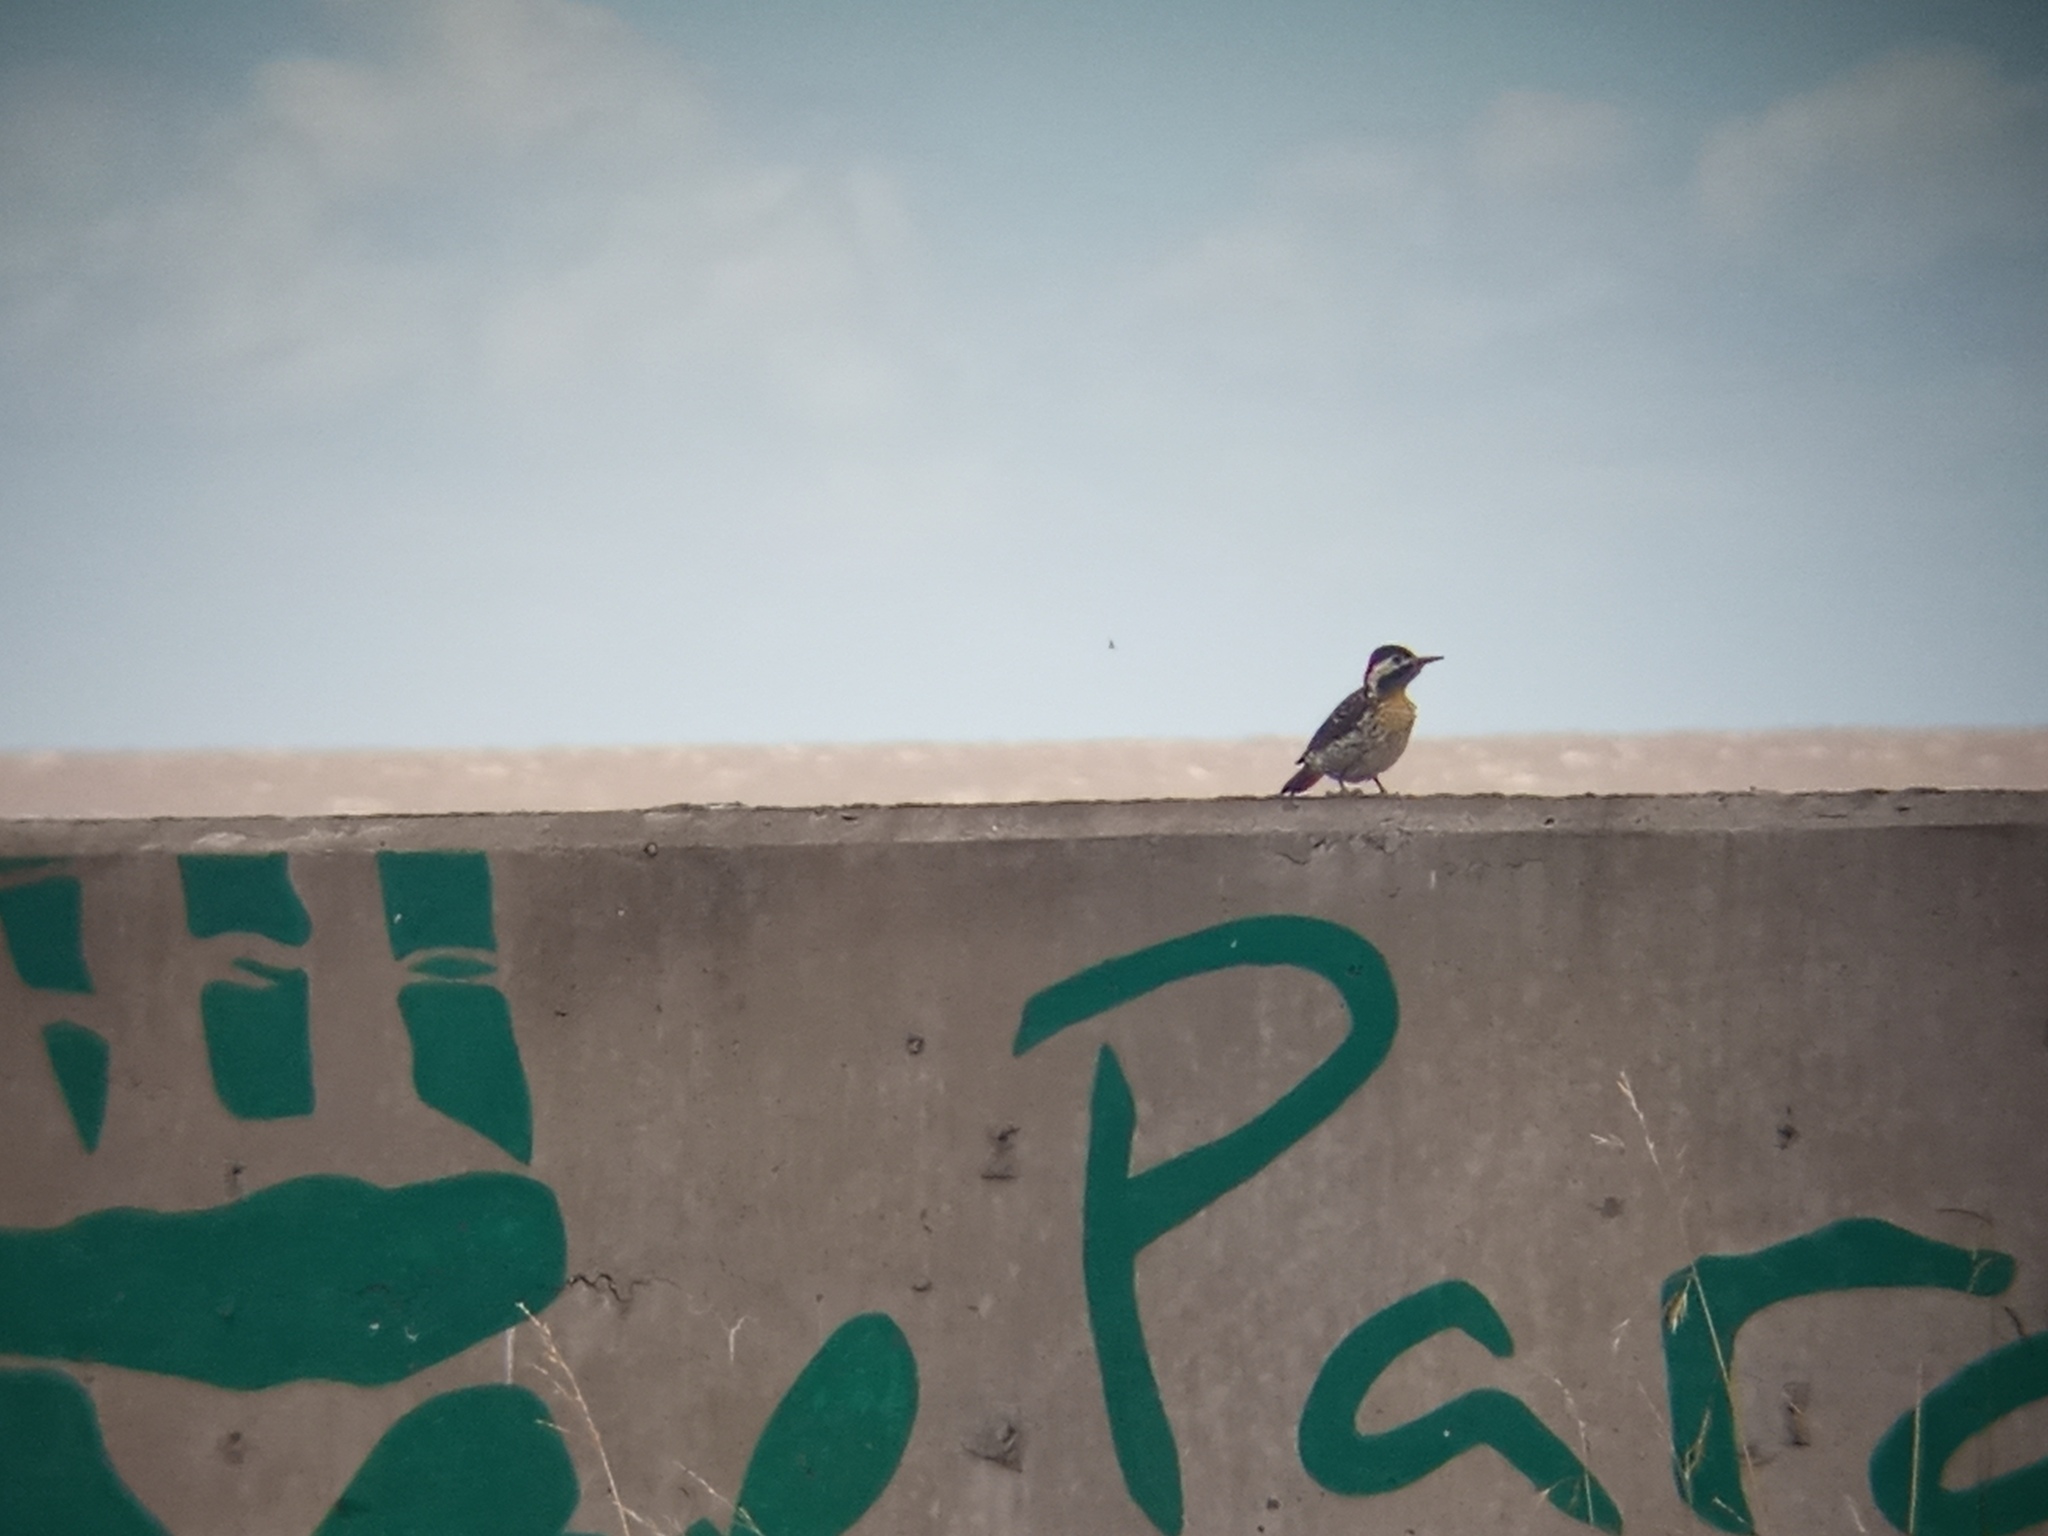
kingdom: Animalia
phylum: Chordata
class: Aves
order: Piciformes
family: Picidae
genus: Colaptes
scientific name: Colaptes melanochloros
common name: Green-barred woodpecker
